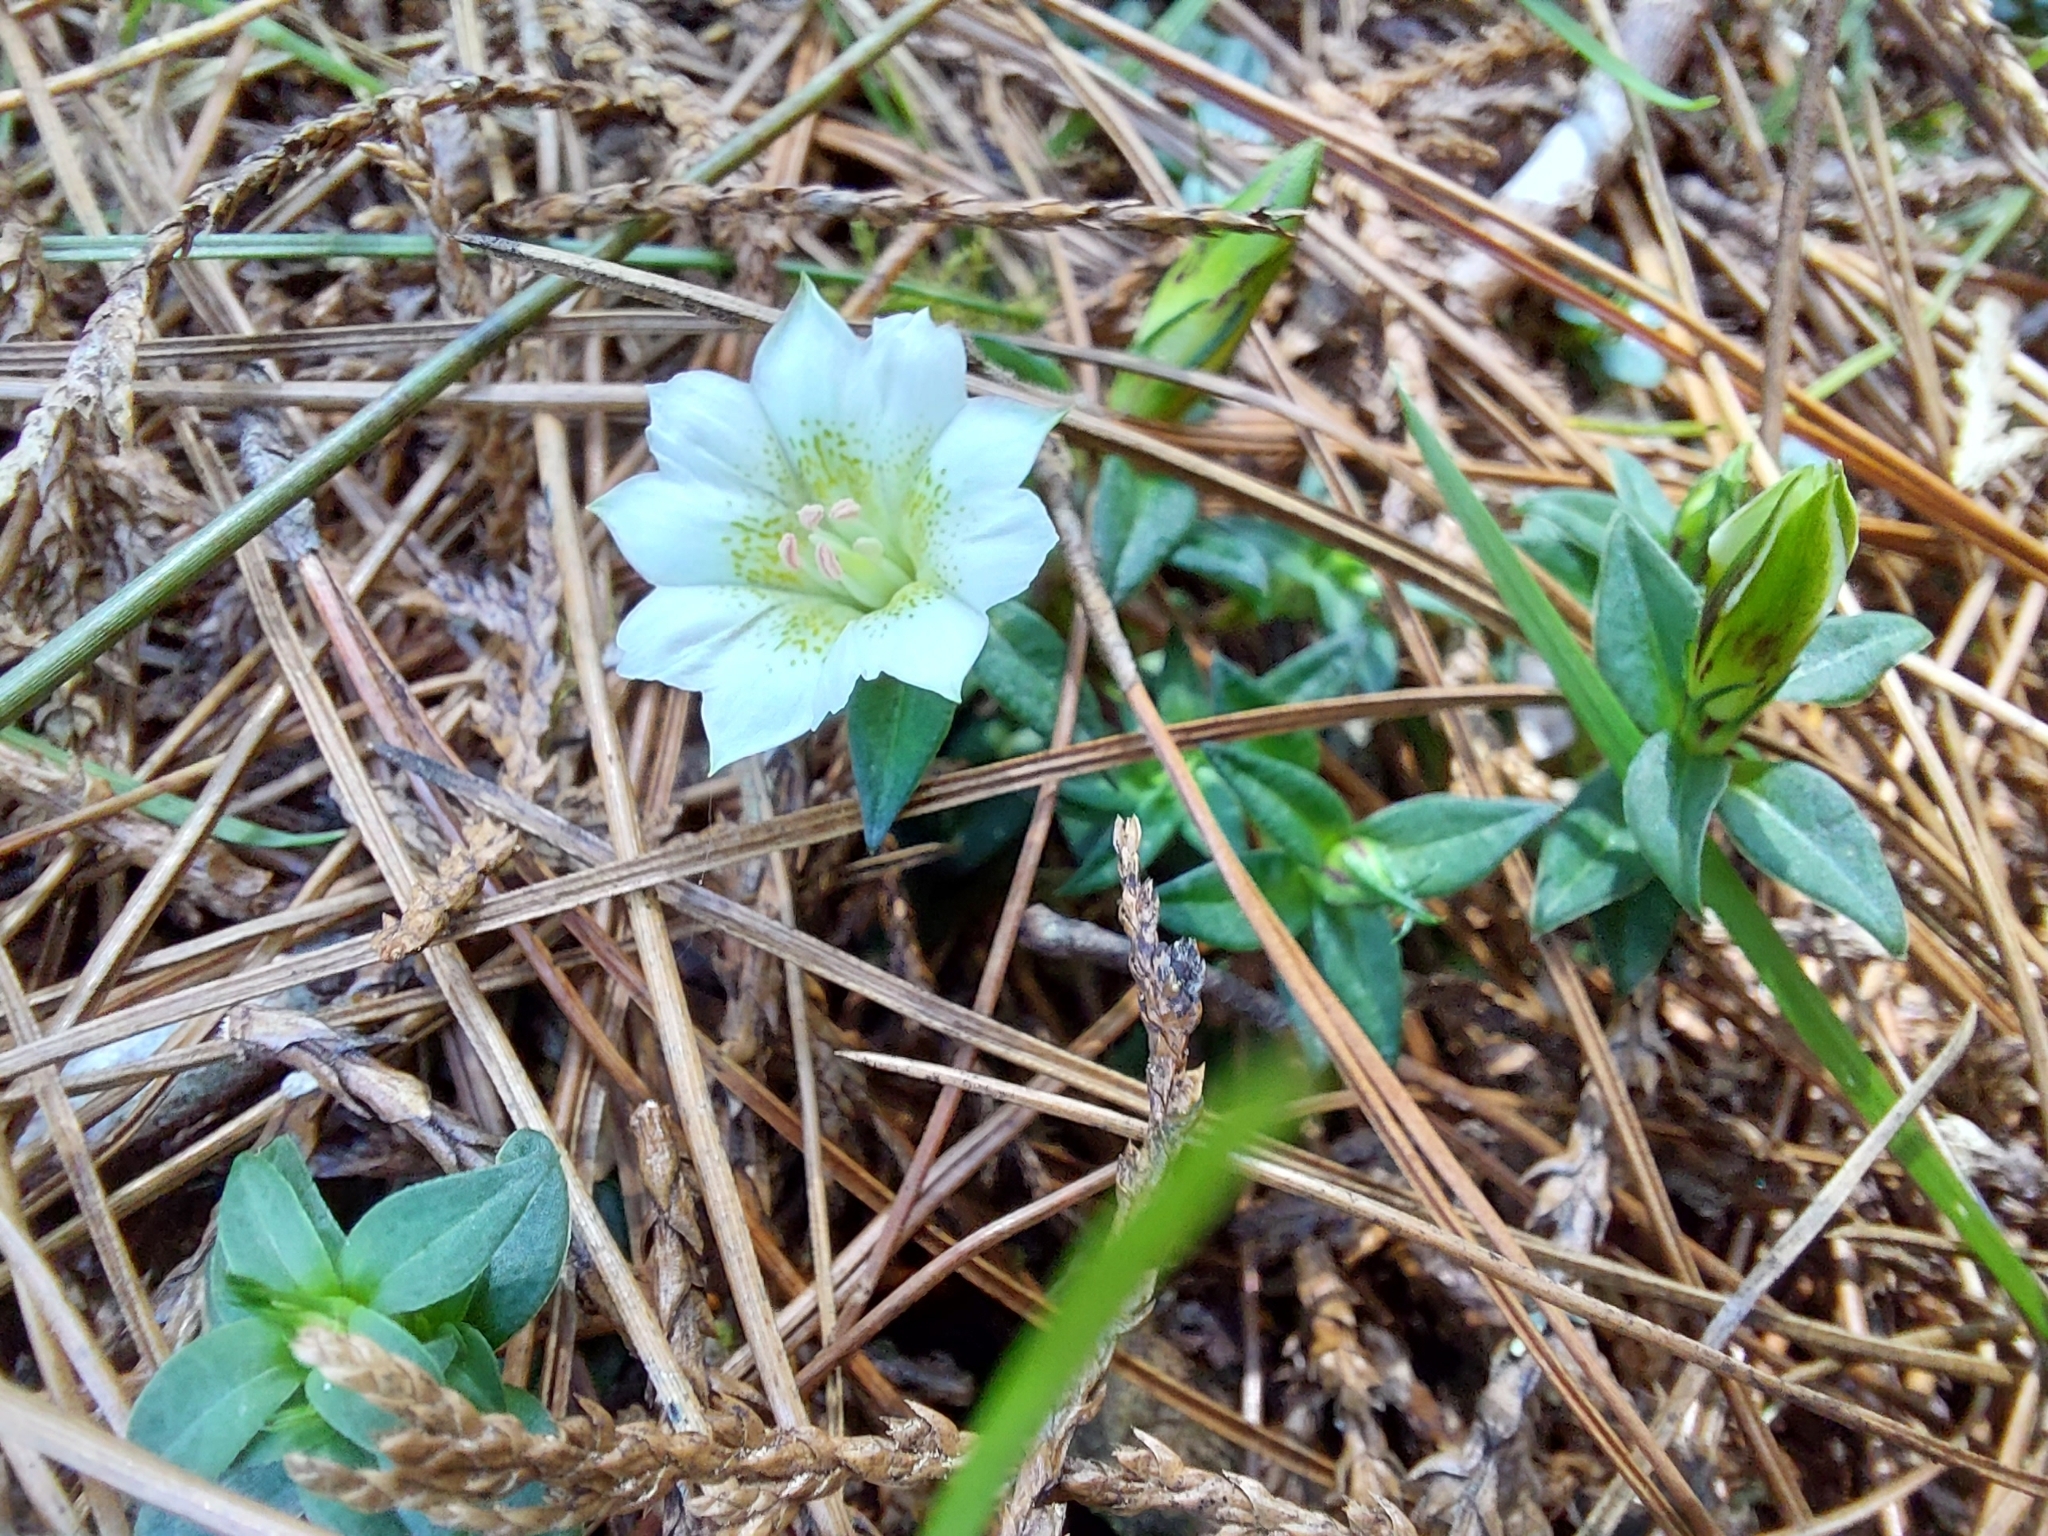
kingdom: Plantae
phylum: Tracheophyta
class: Magnoliopsida
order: Gentianales
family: Gentianaceae
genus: Gentiana
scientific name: Gentiana flavomaculata
